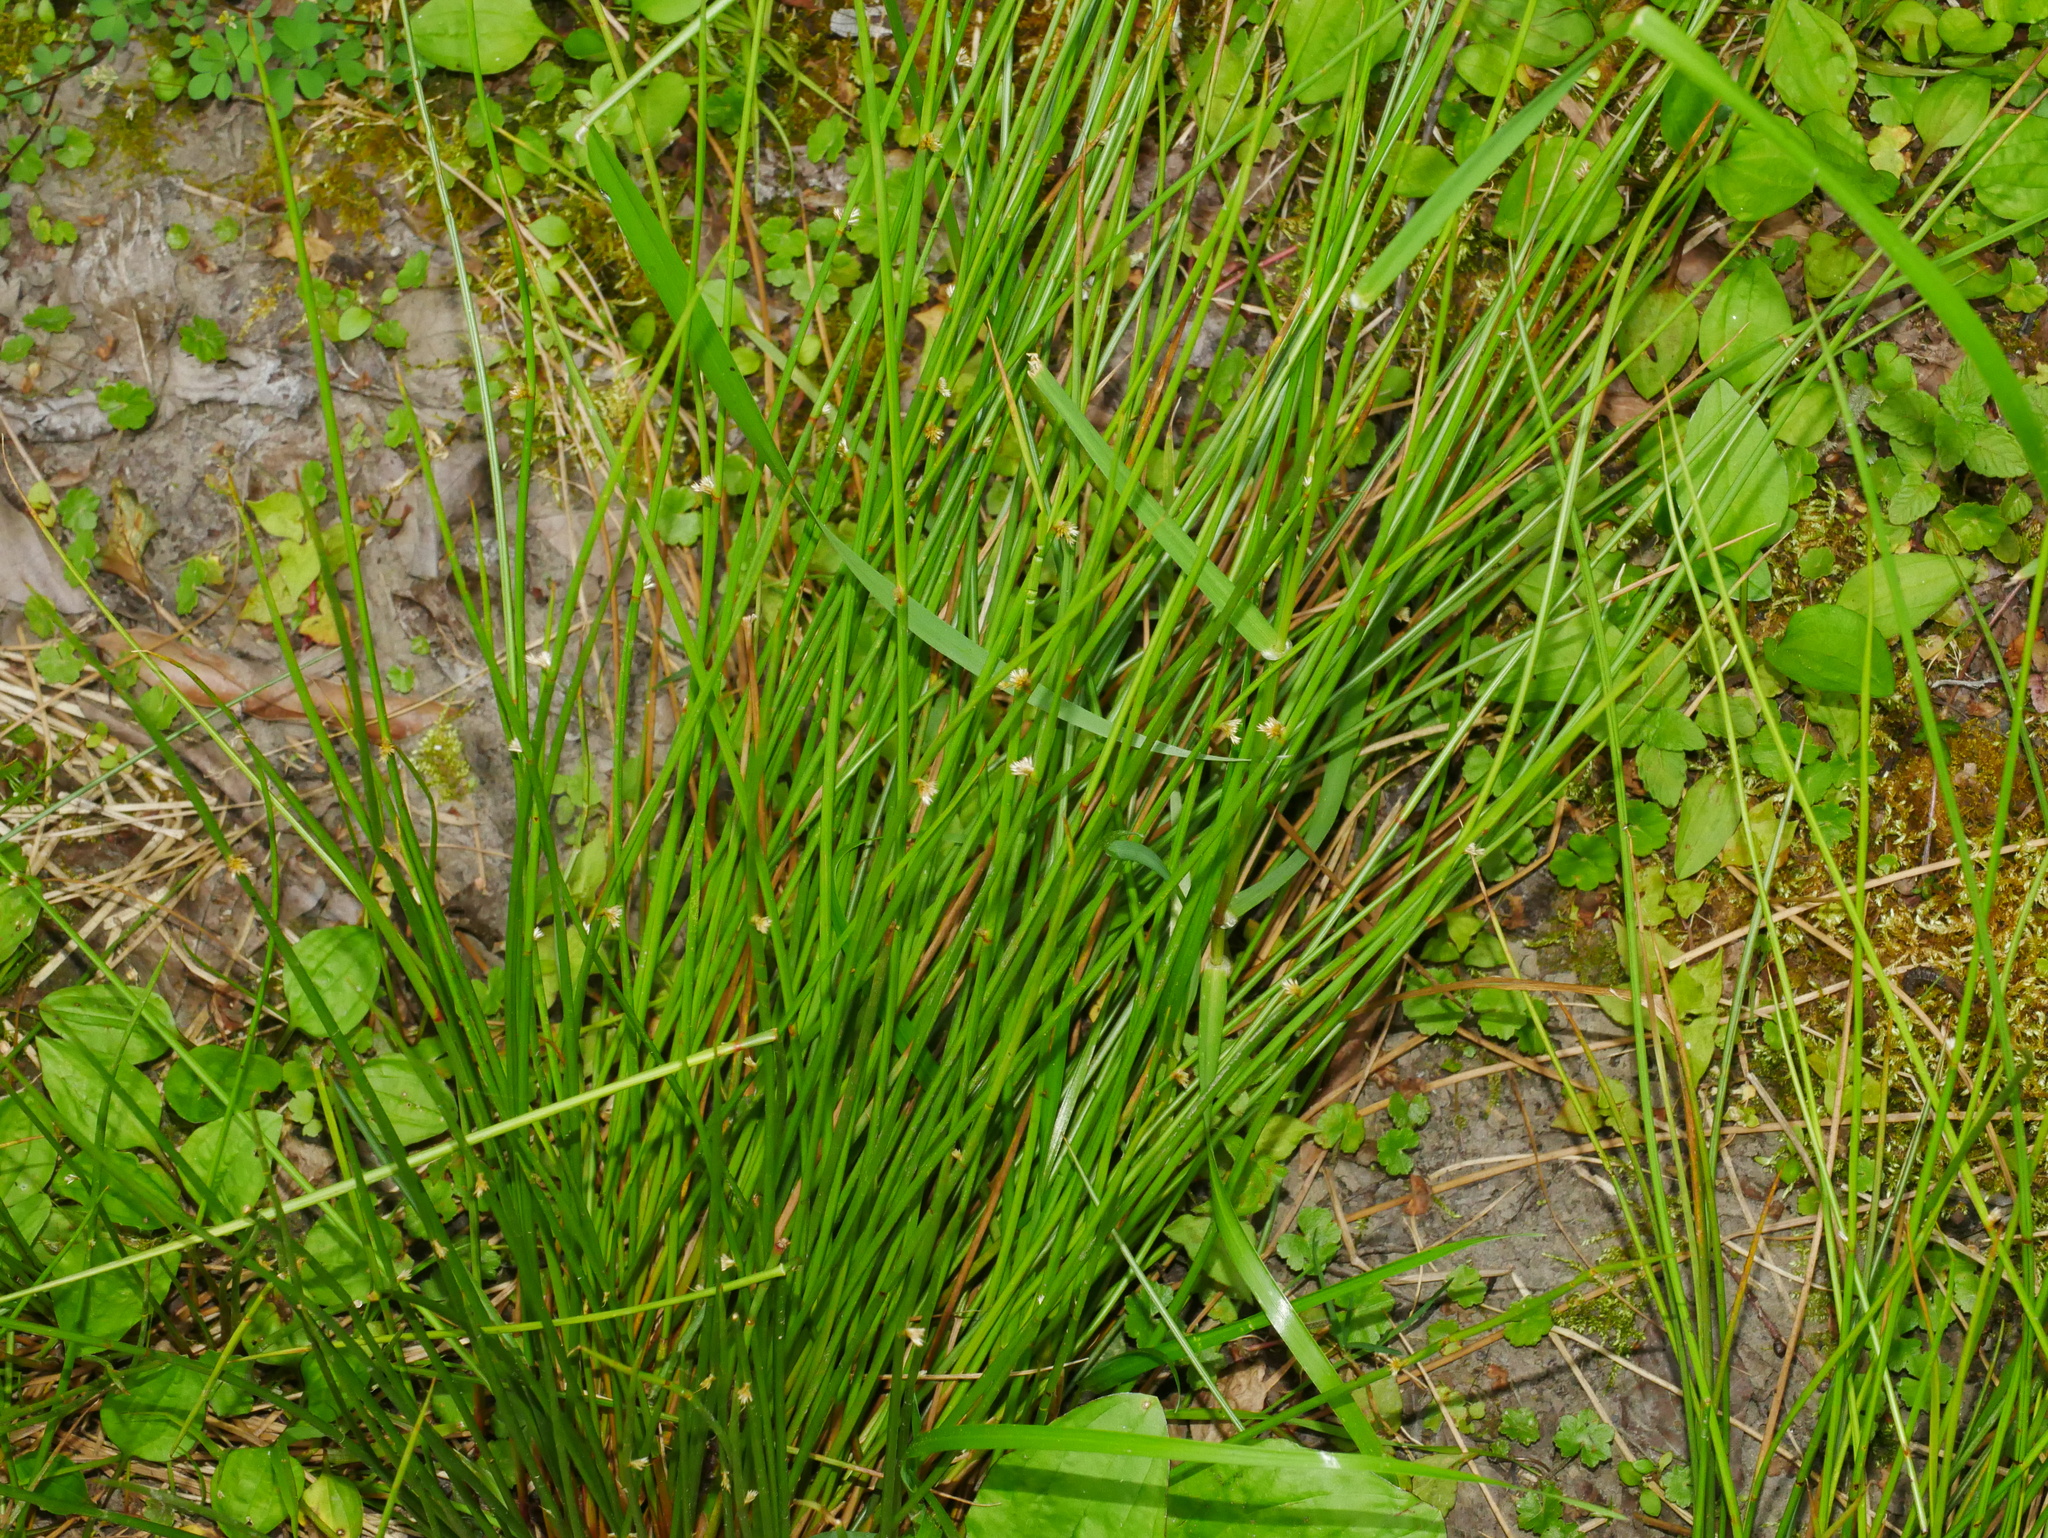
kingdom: Plantae
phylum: Tracheophyta
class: Liliopsida
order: Poales
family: Juncaceae
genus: Juncus
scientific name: Juncus effusus
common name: Soft rush
